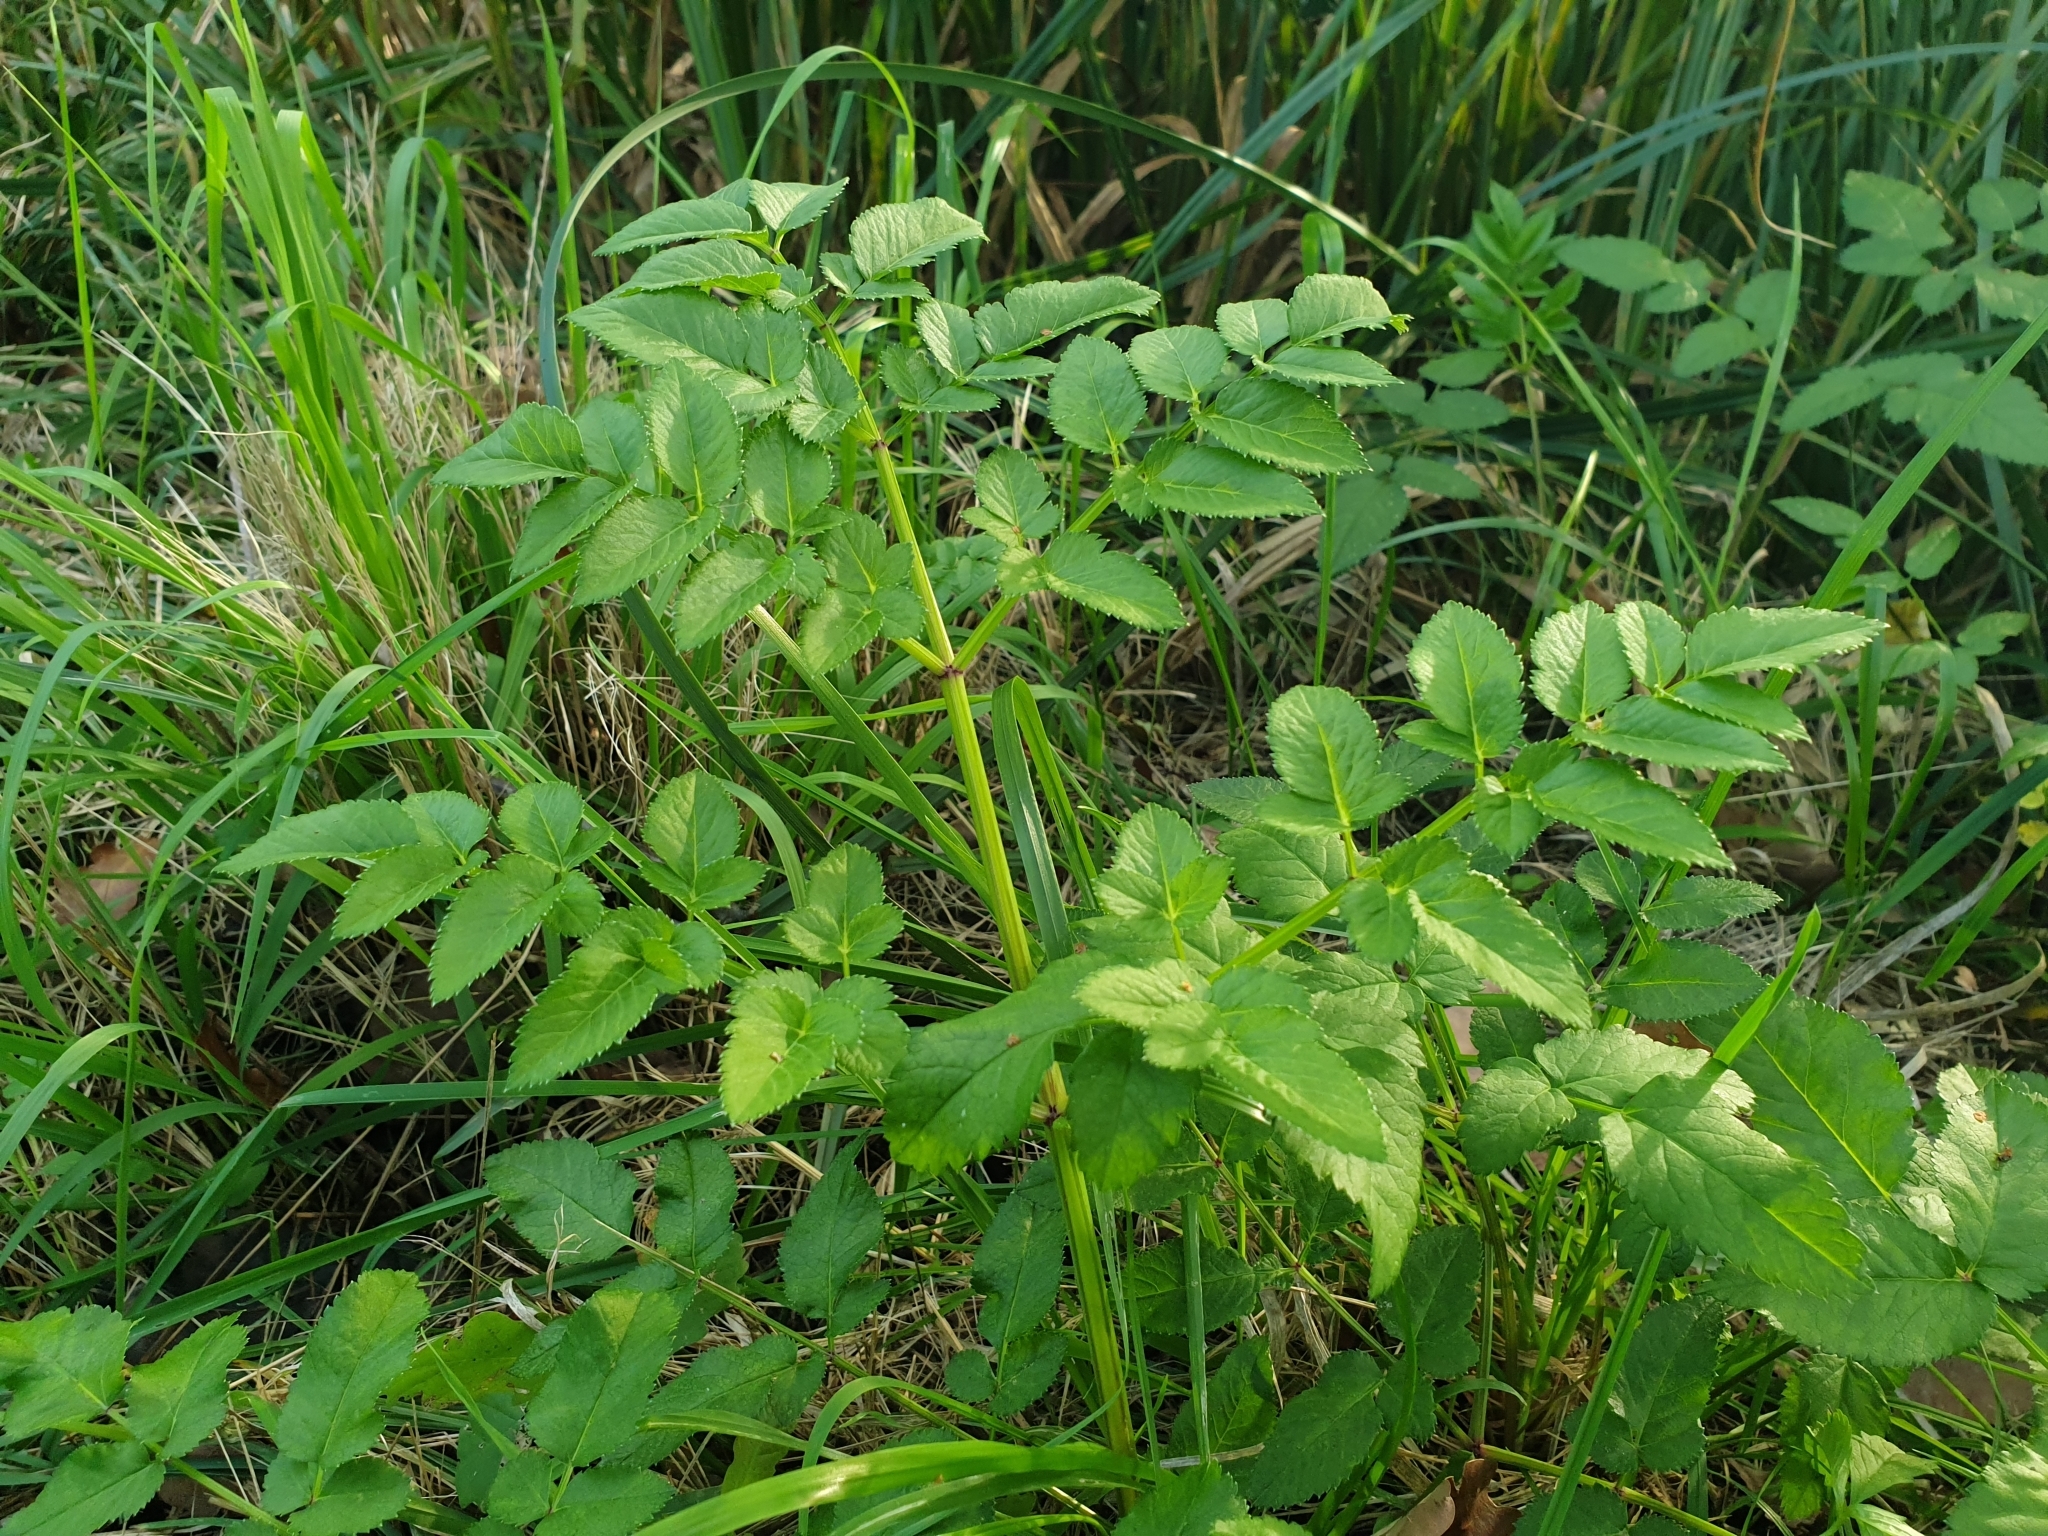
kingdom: Plantae
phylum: Tracheophyta
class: Magnoliopsida
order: Apiales
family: Apiaceae
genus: Angelica
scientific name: Angelica sylvestris
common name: Wild angelica
